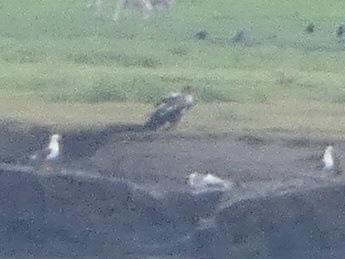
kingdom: Animalia
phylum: Chordata
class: Aves
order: Accipitriformes
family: Accipitridae
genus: Haliaeetus
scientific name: Haliaeetus albicilla
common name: White-tailed eagle
